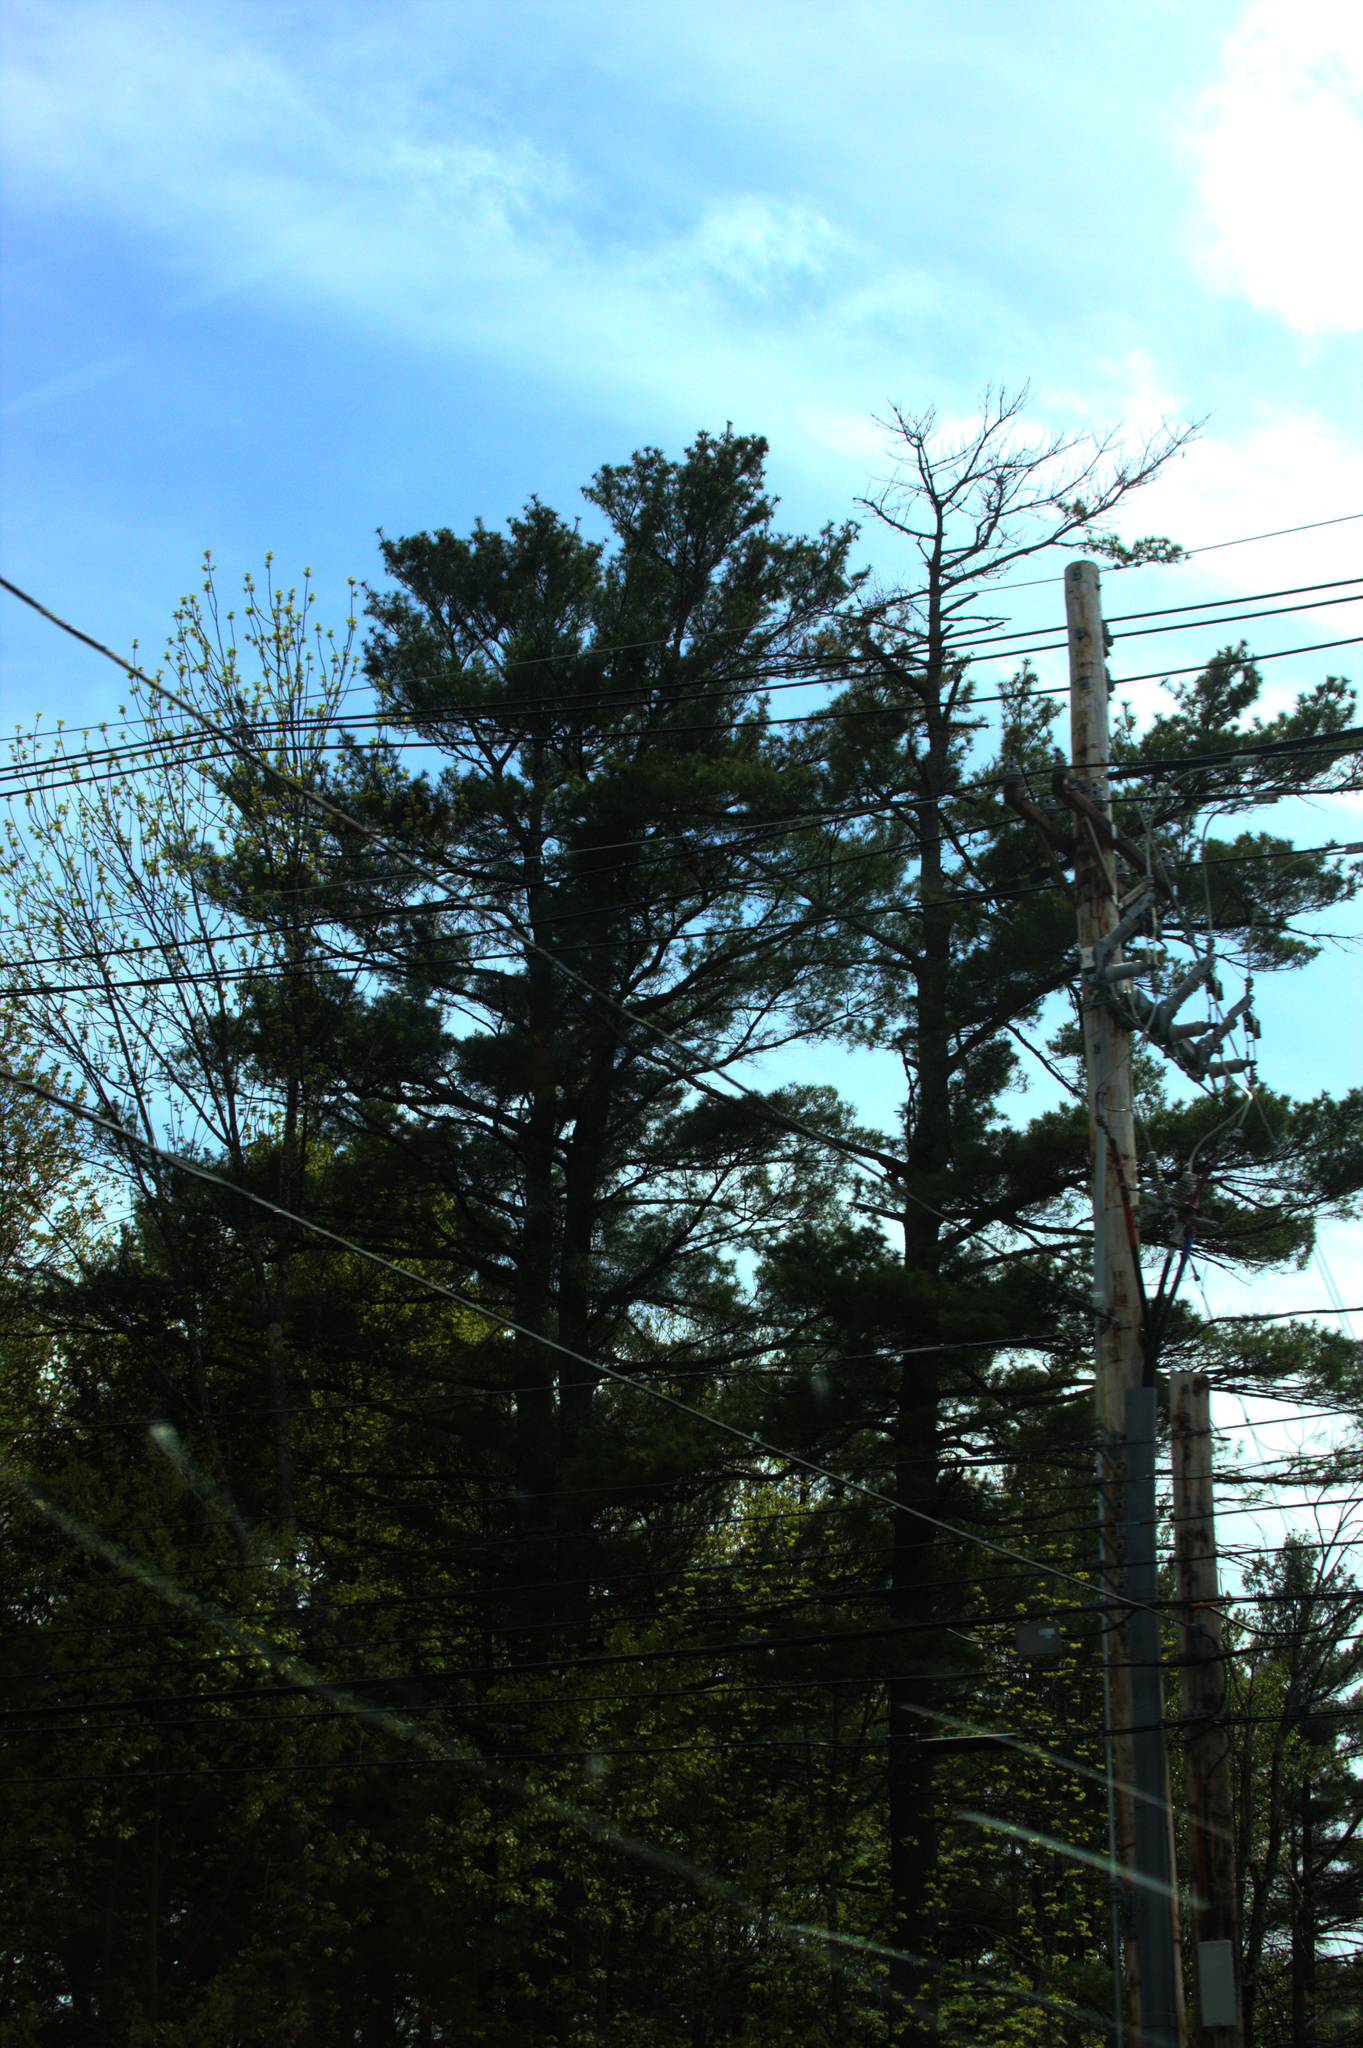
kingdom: Plantae
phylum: Tracheophyta
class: Pinopsida
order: Pinales
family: Pinaceae
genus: Pinus
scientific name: Pinus strobus
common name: Weymouth pine
